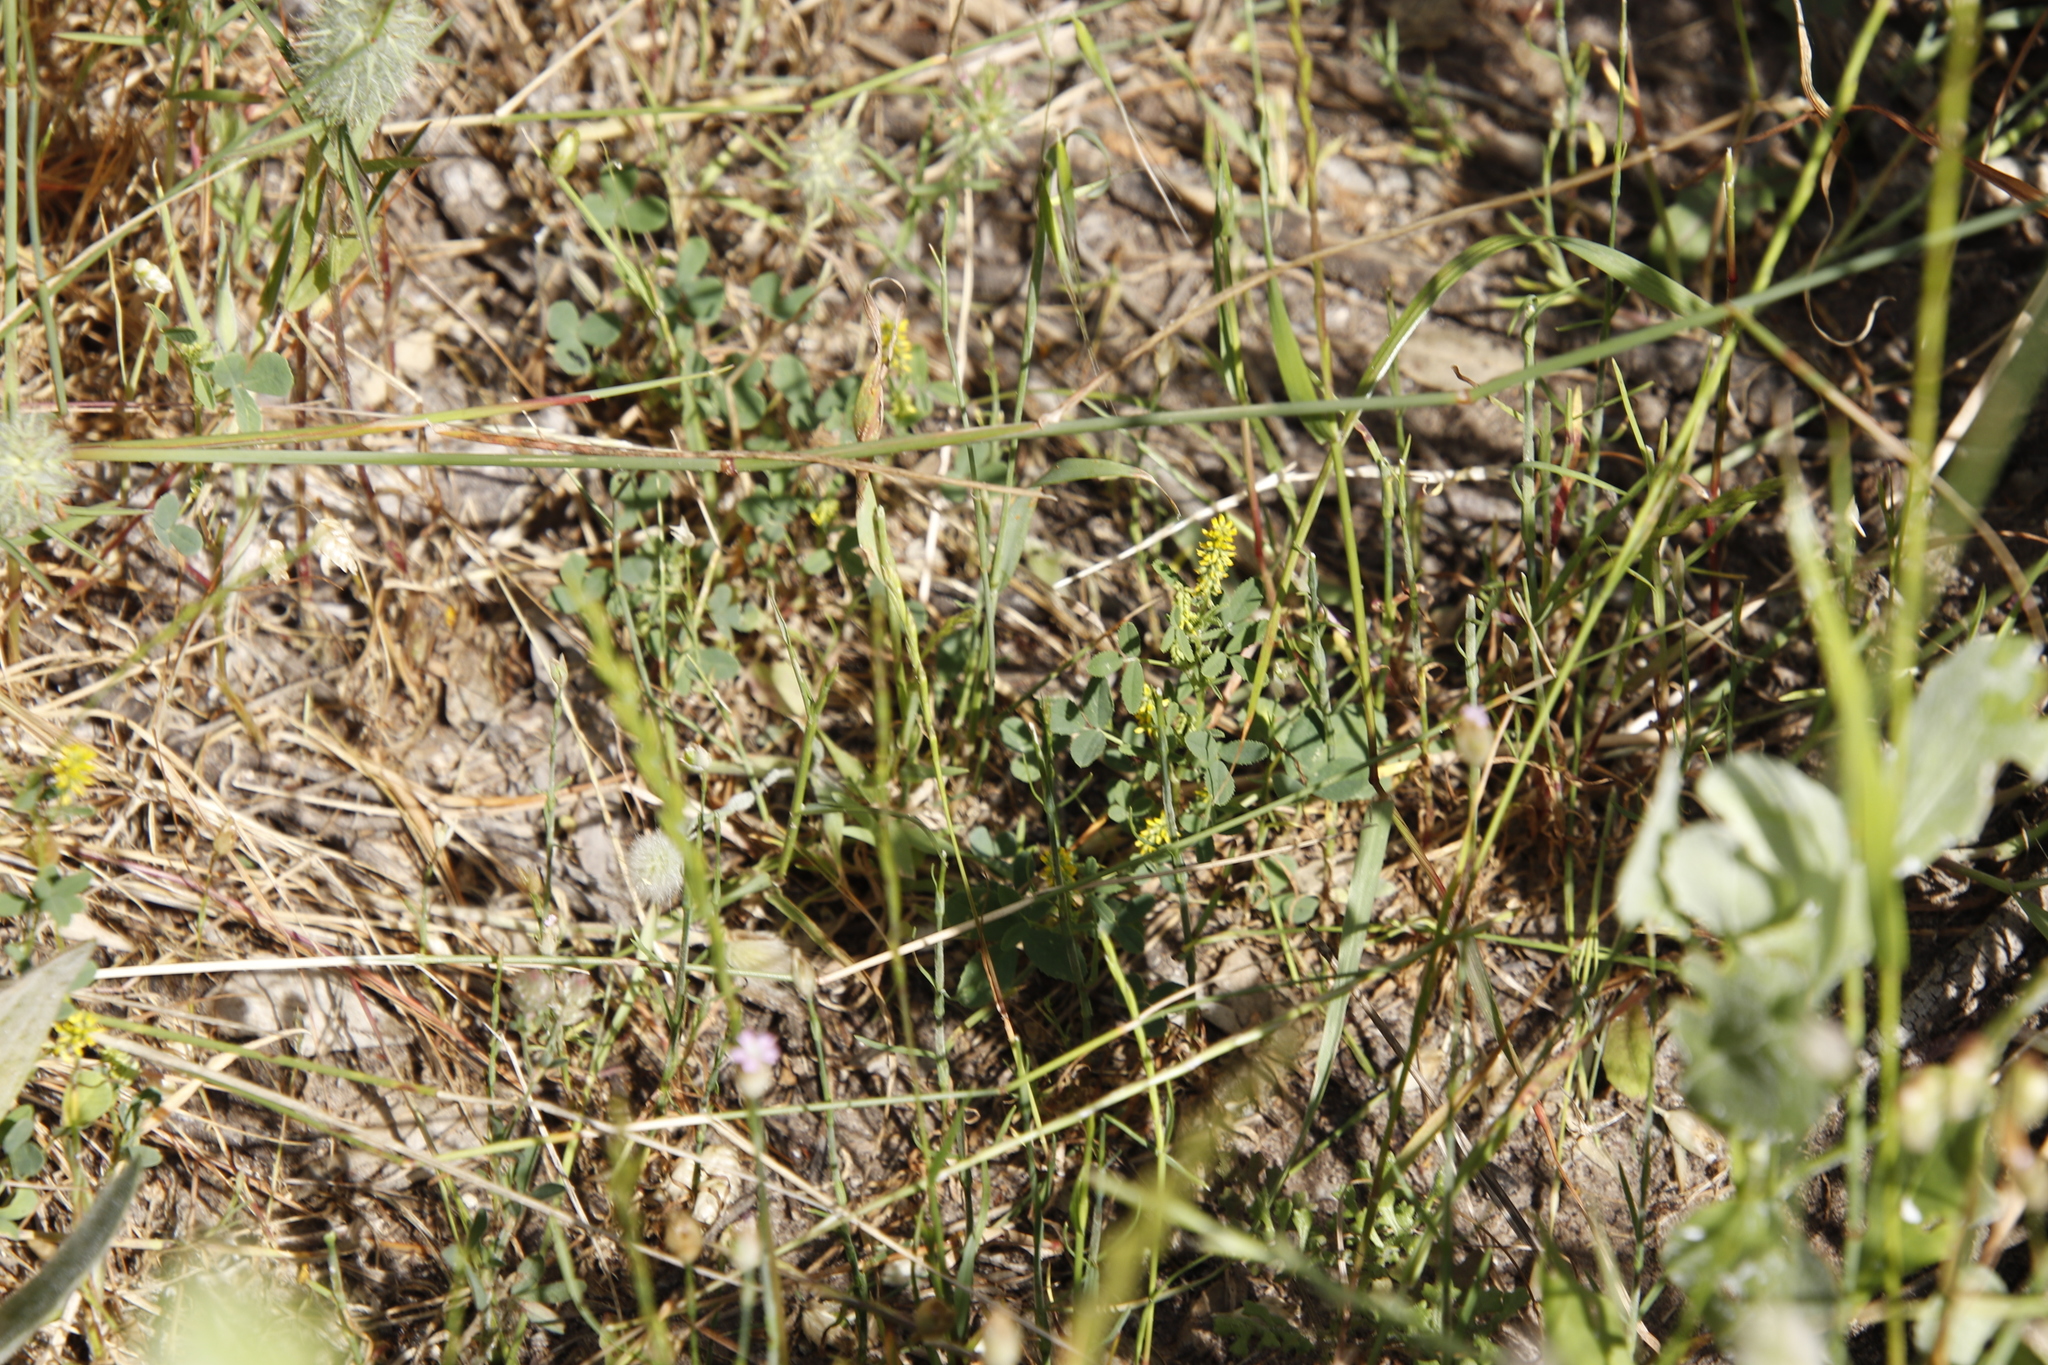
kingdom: Plantae
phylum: Tracheophyta
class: Magnoliopsida
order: Fabales
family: Fabaceae
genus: Melilotus
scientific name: Melilotus indicus
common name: Small melilot
